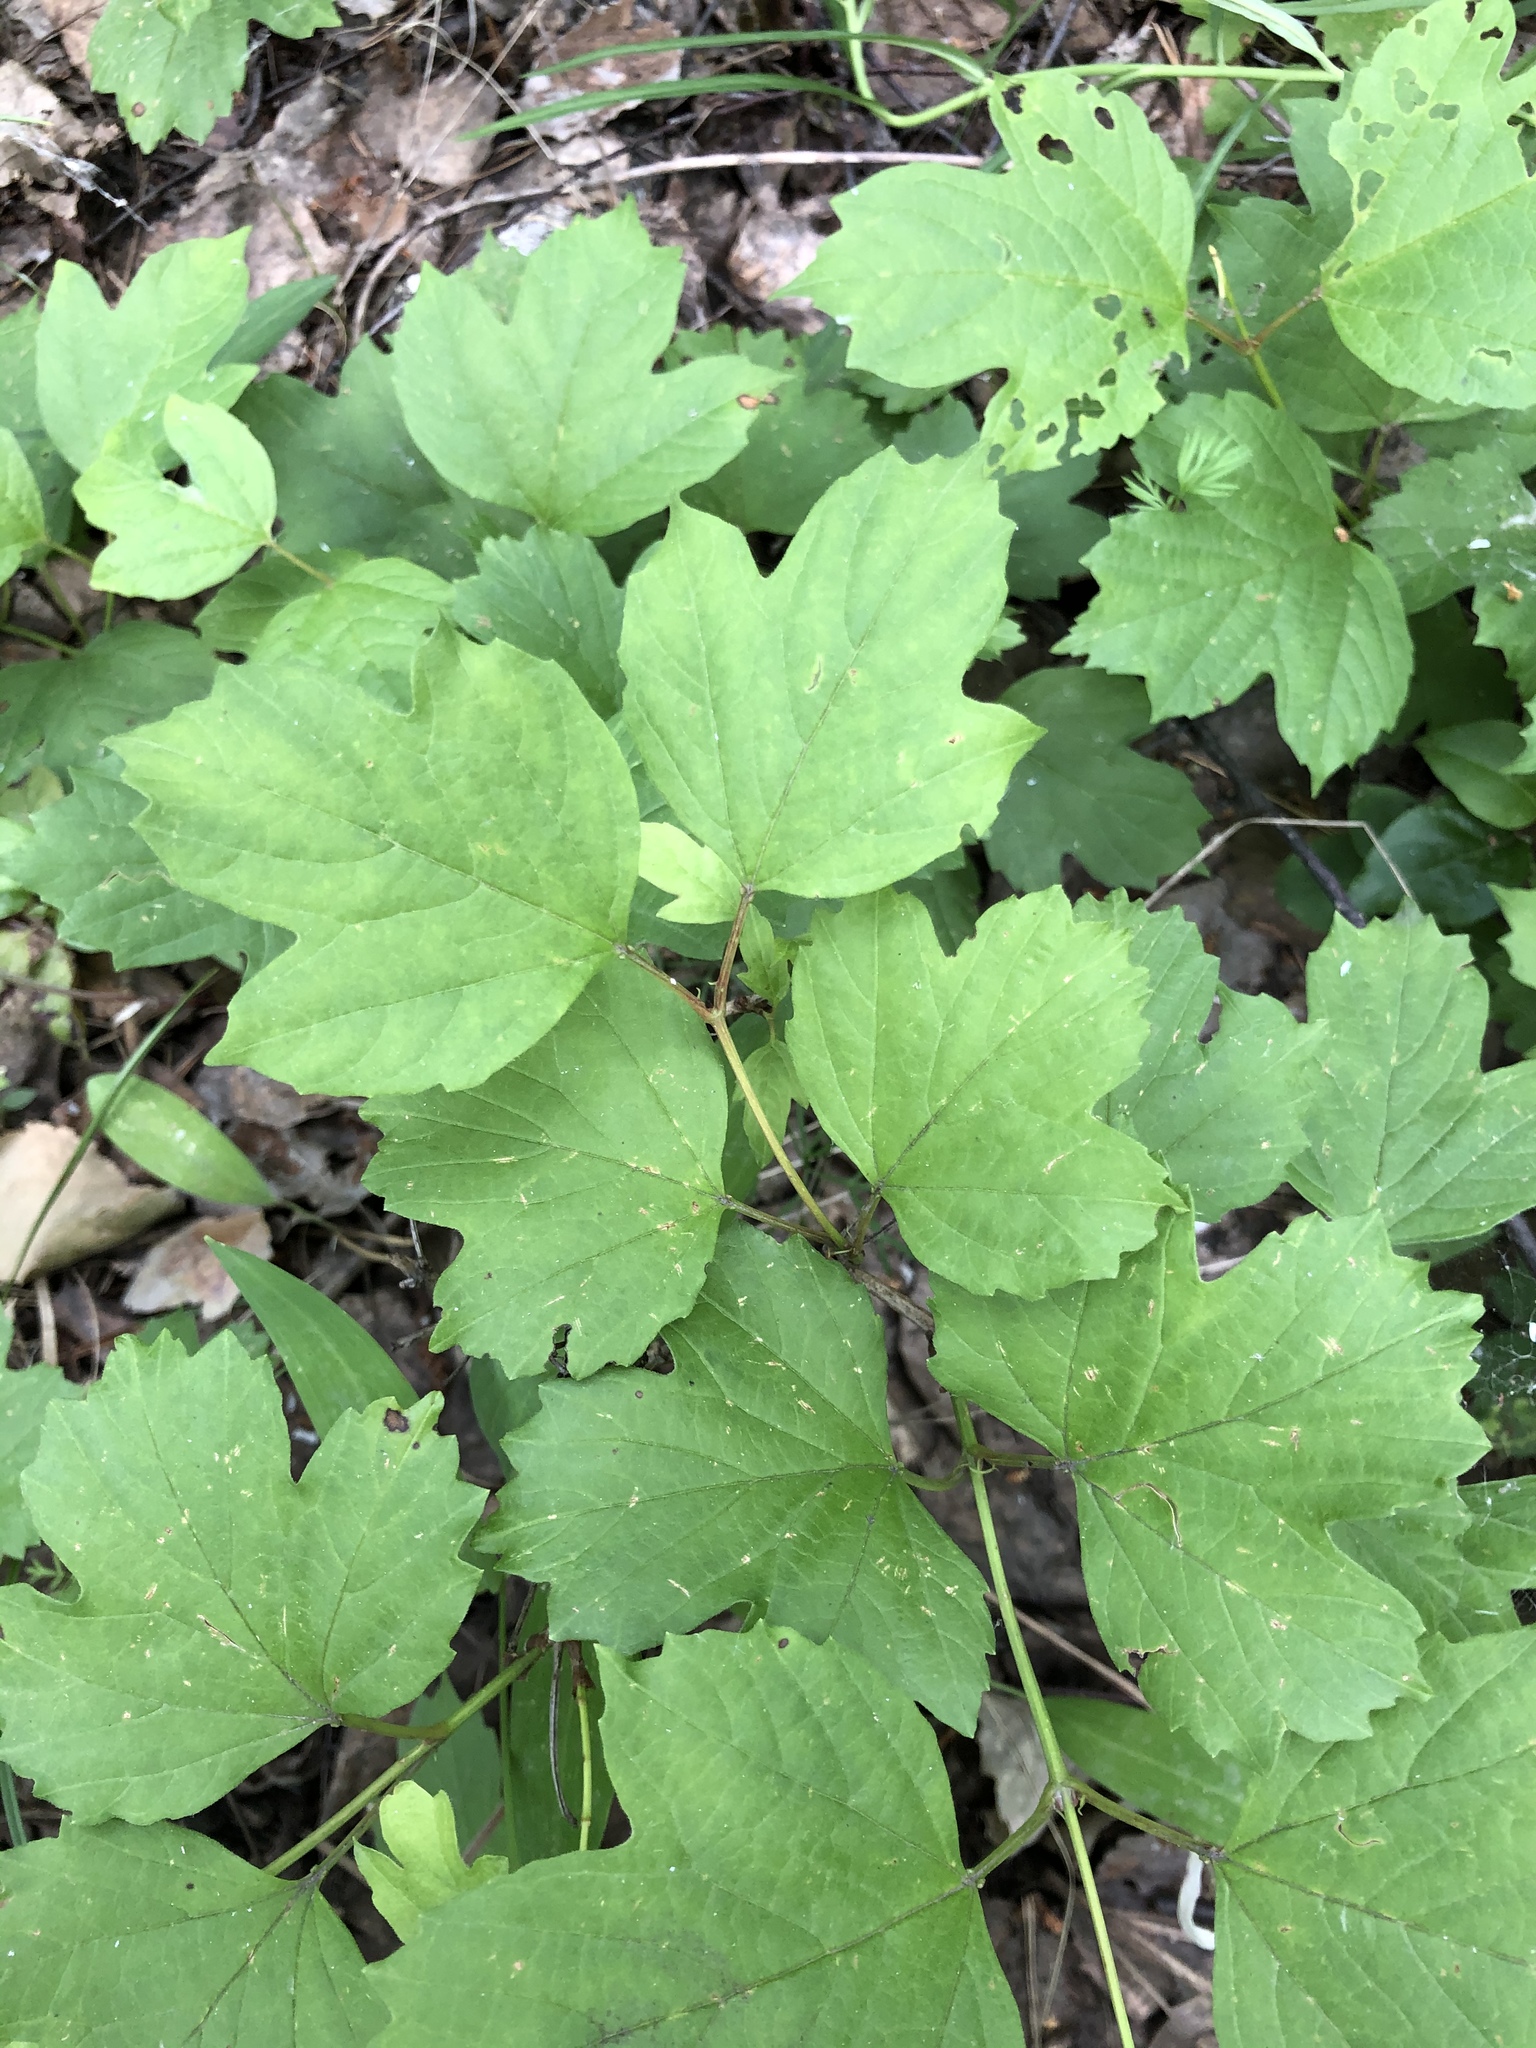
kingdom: Plantae
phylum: Tracheophyta
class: Magnoliopsida
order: Dipsacales
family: Viburnaceae
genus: Viburnum
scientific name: Viburnum opulus
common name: Guelder-rose
